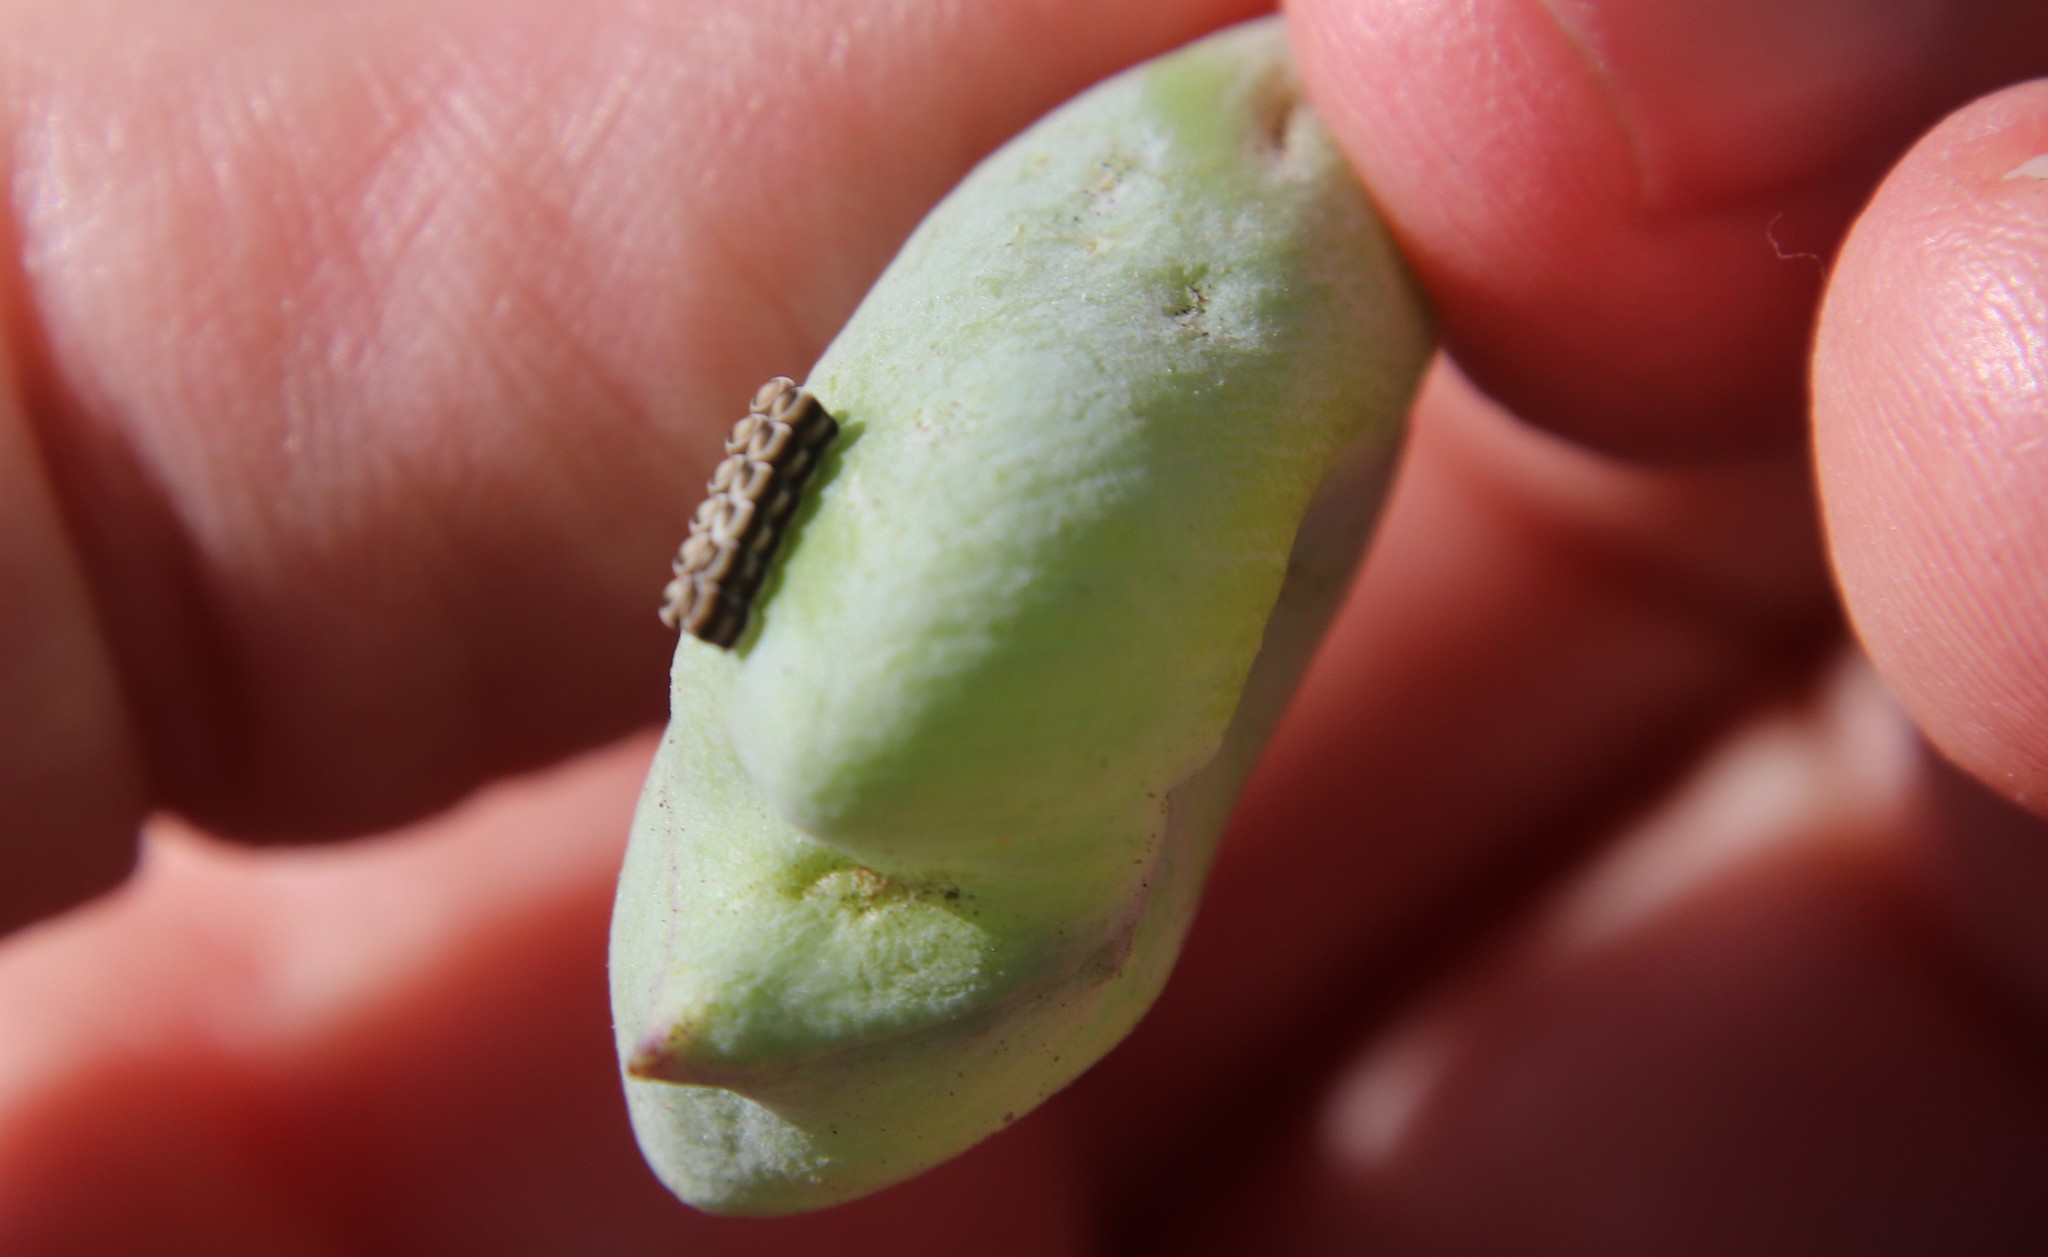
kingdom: Animalia
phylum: Arthropoda
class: Insecta
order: Hemiptera
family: Pentatomidae
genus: Murgantia
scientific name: Murgantia histrionica
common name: Harlequin bug
